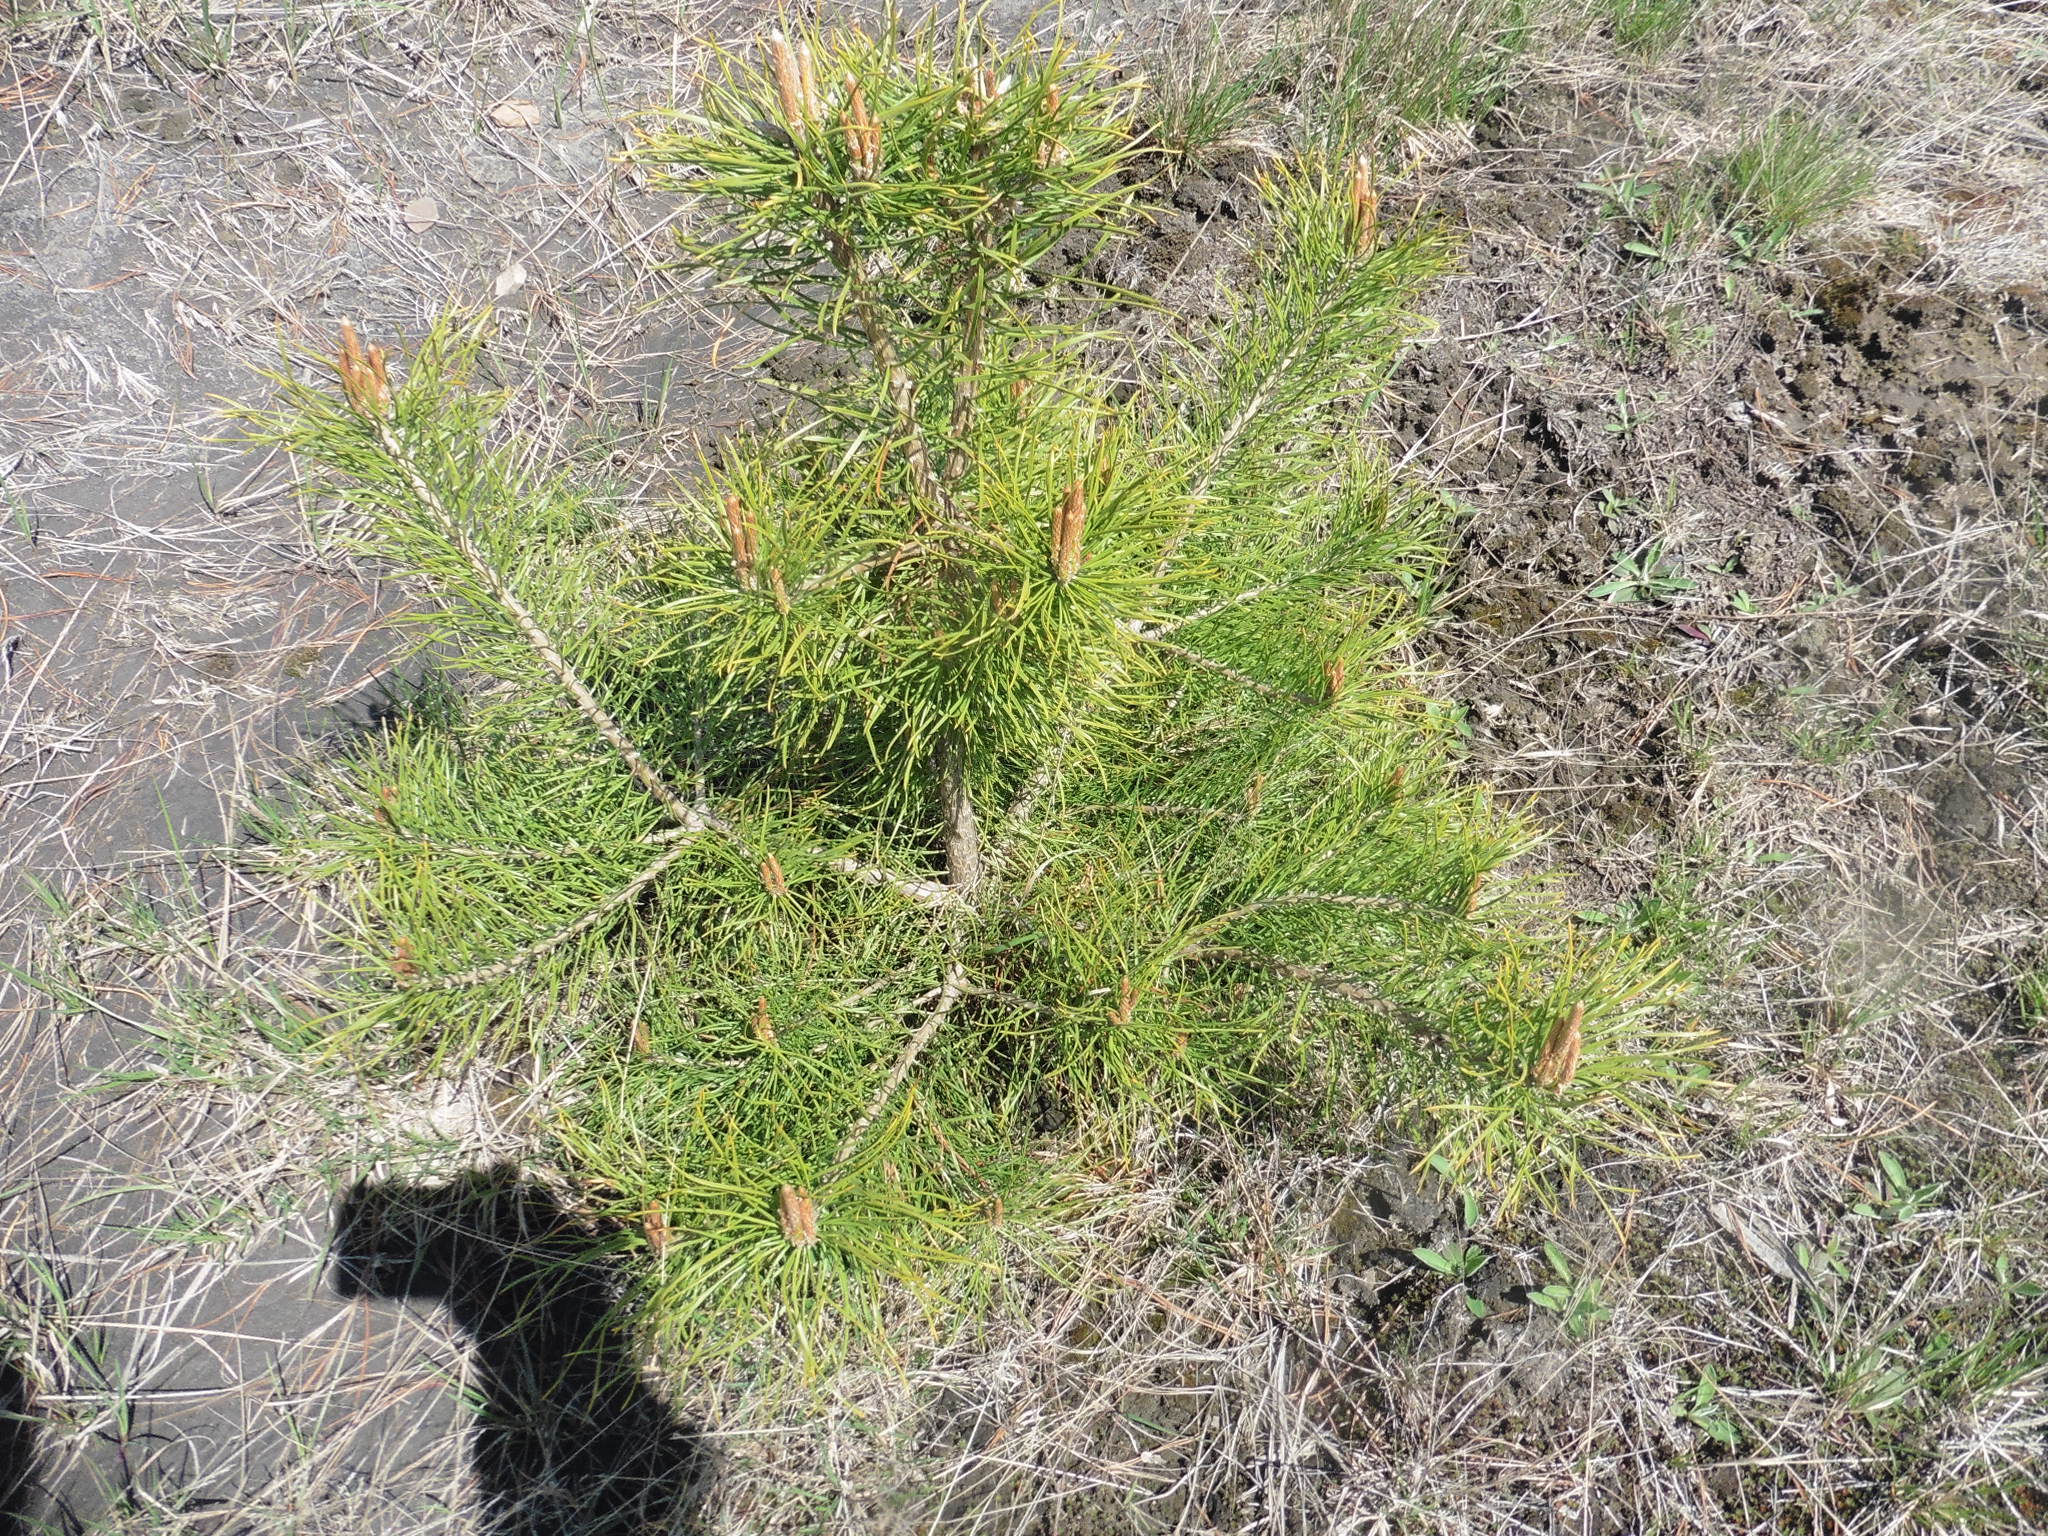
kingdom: Plantae
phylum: Tracheophyta
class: Pinopsida
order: Pinales
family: Pinaceae
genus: Pinus
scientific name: Pinus sylvestris
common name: Scots pine
